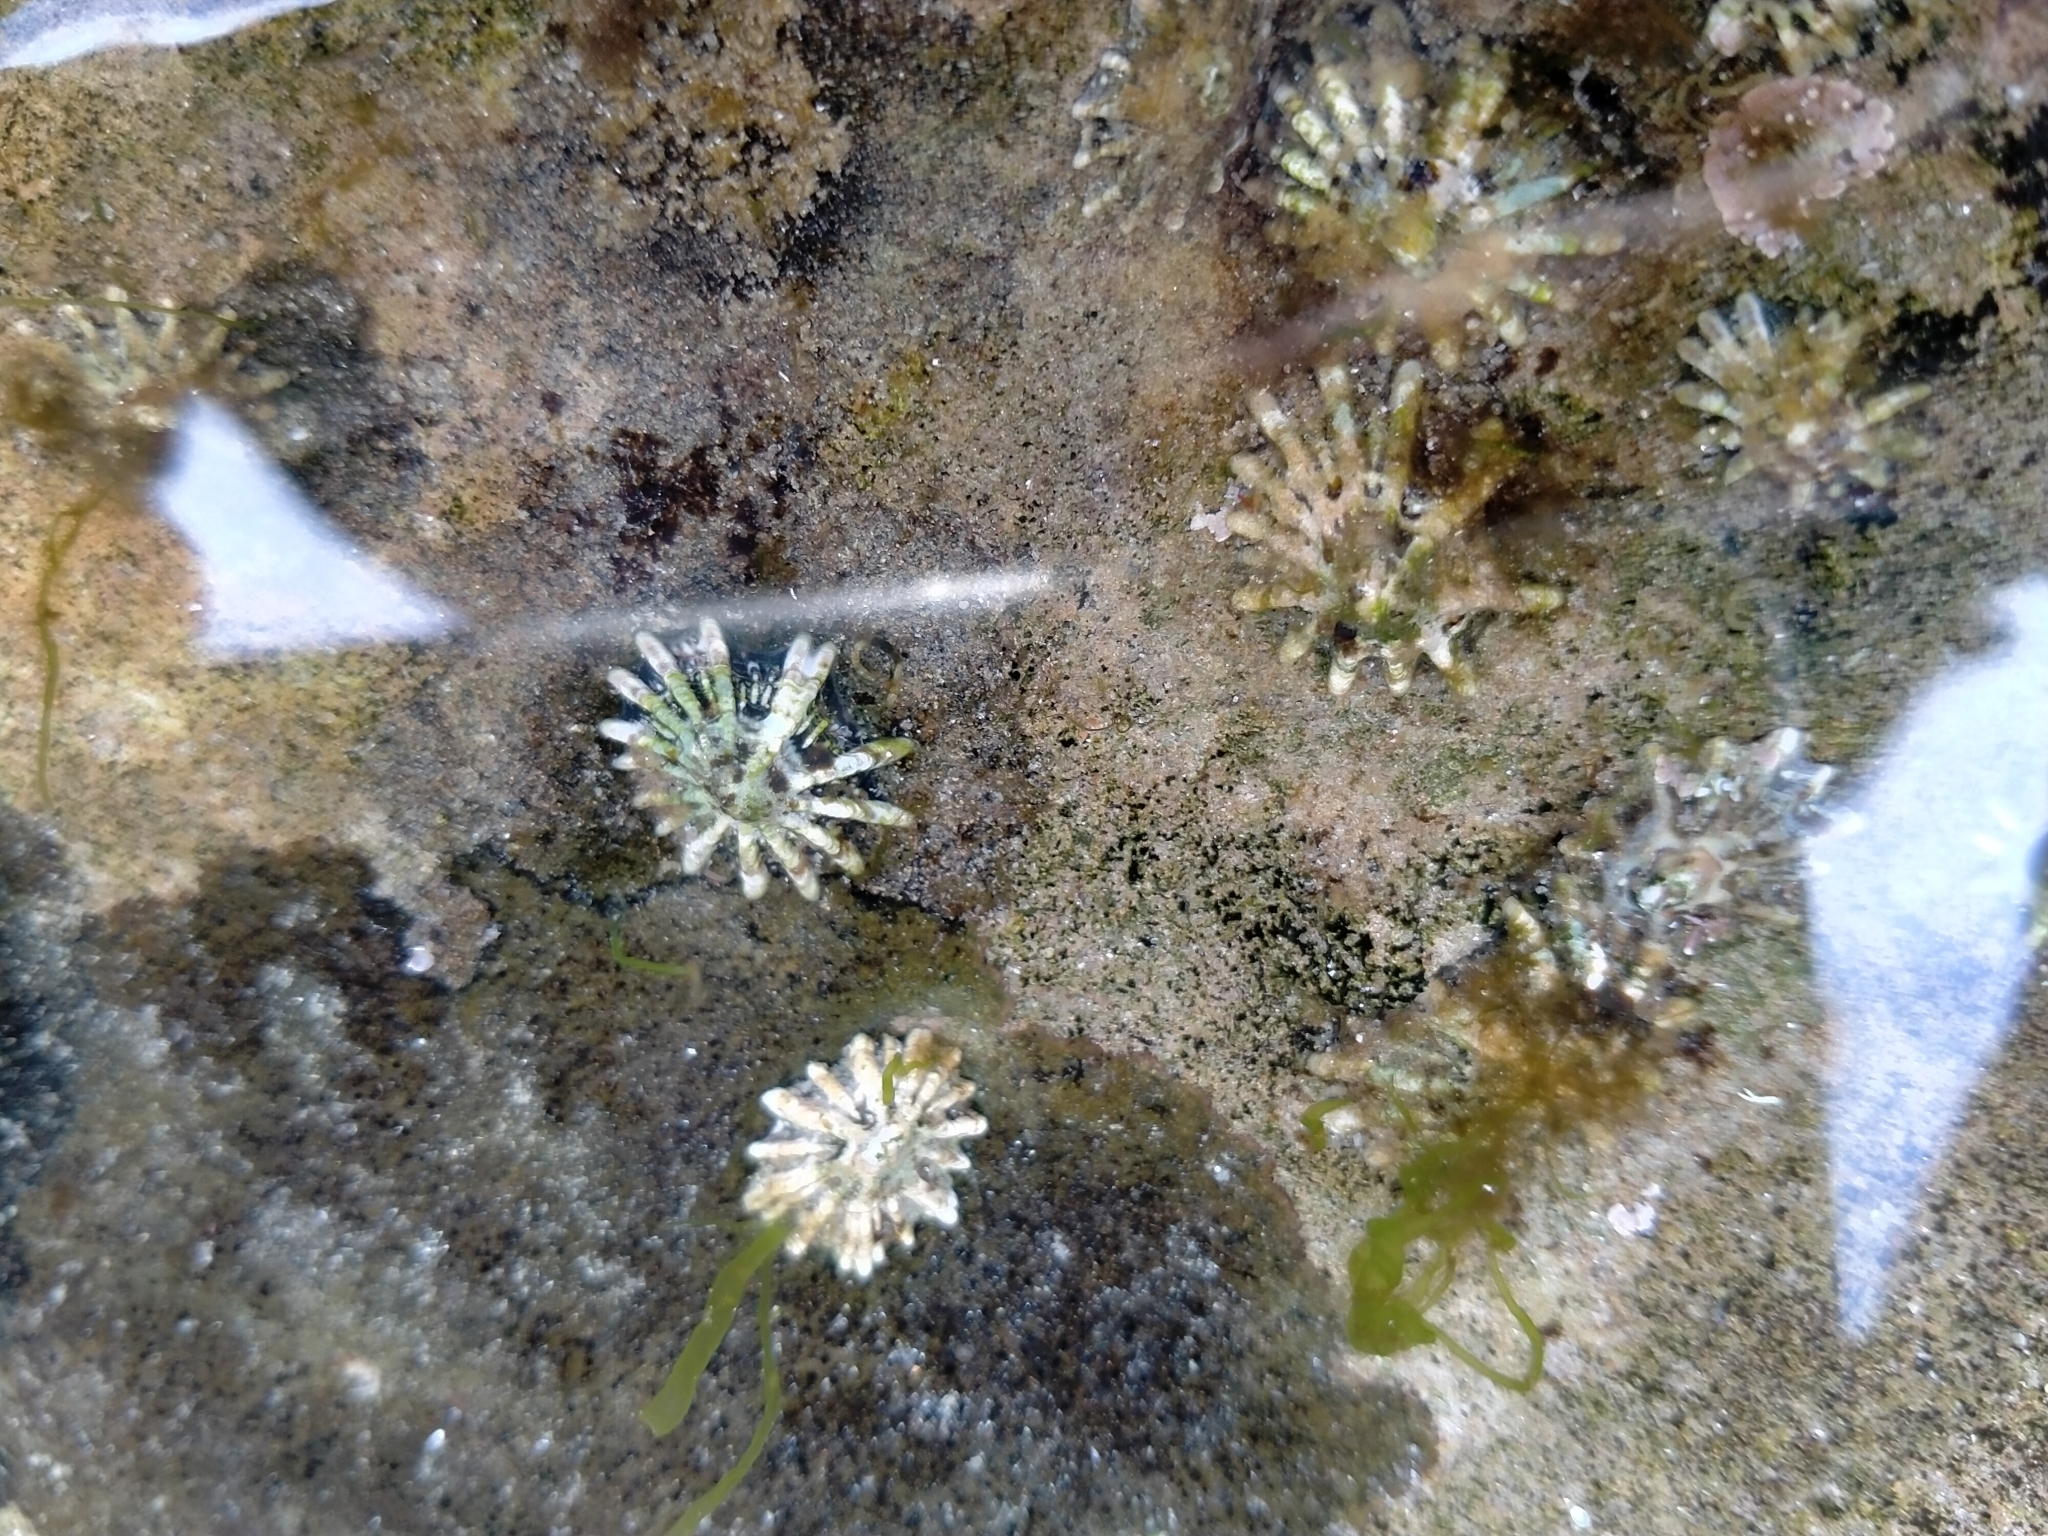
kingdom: Animalia
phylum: Mollusca
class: Gastropoda
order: Siphonariida
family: Siphonariidae
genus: Siphonaria
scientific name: Siphonaria australis
